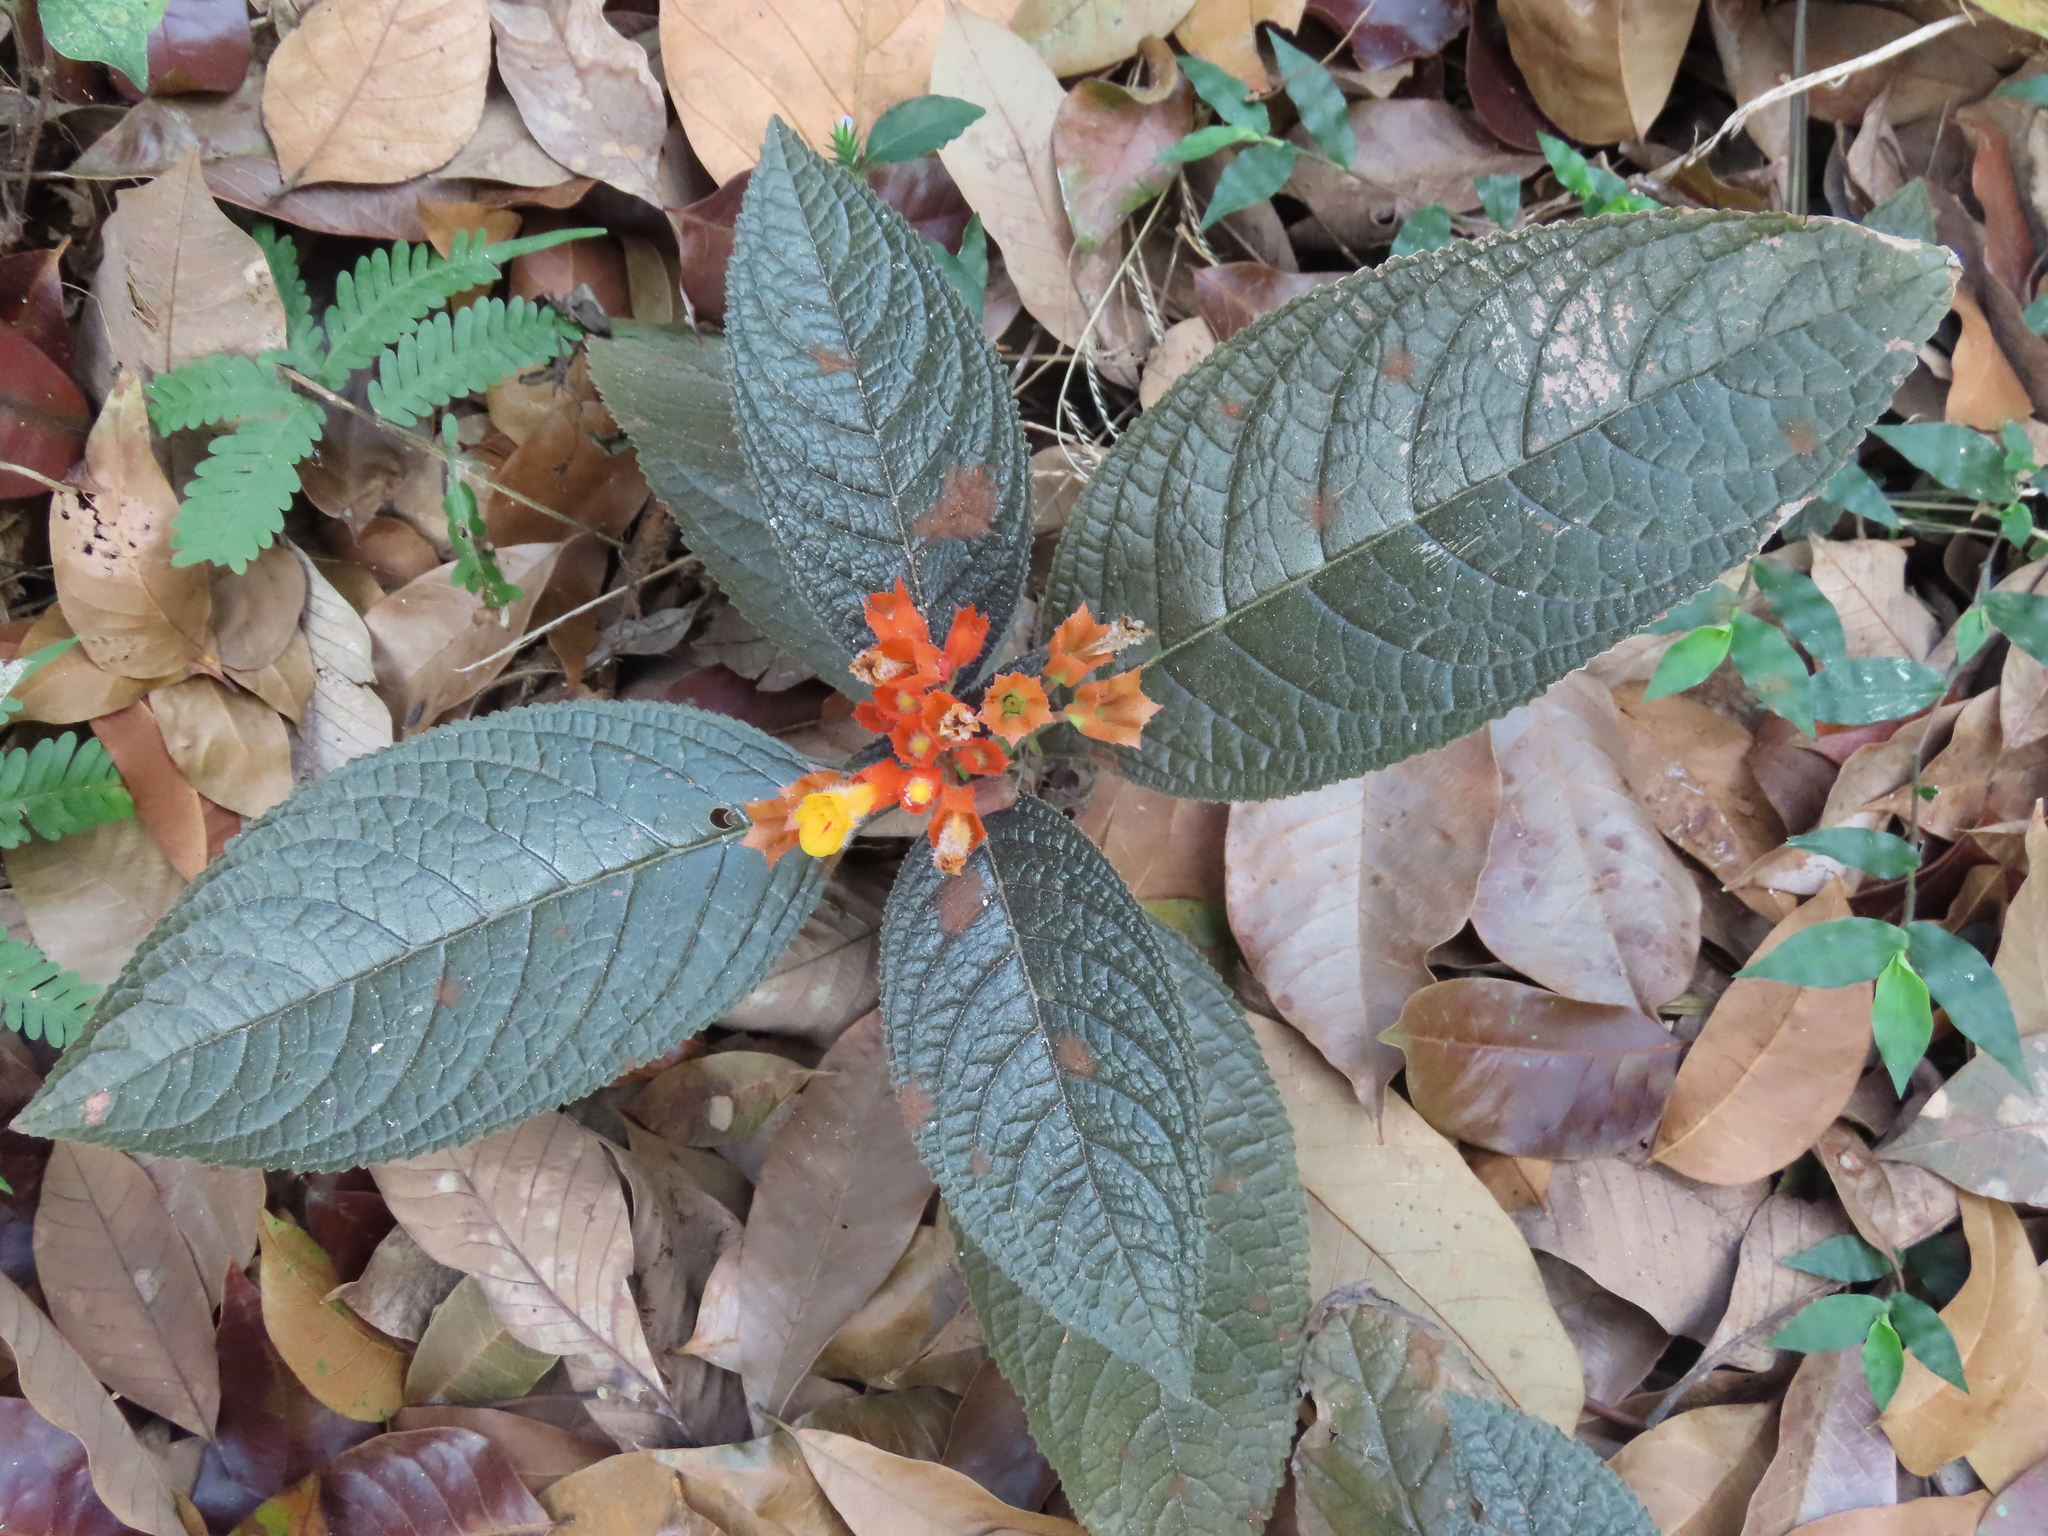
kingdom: Plantae
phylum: Tracheophyta
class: Magnoliopsida
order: Lamiales
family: Gesneriaceae
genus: Chrysothemis
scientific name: Chrysothemis pulchella
